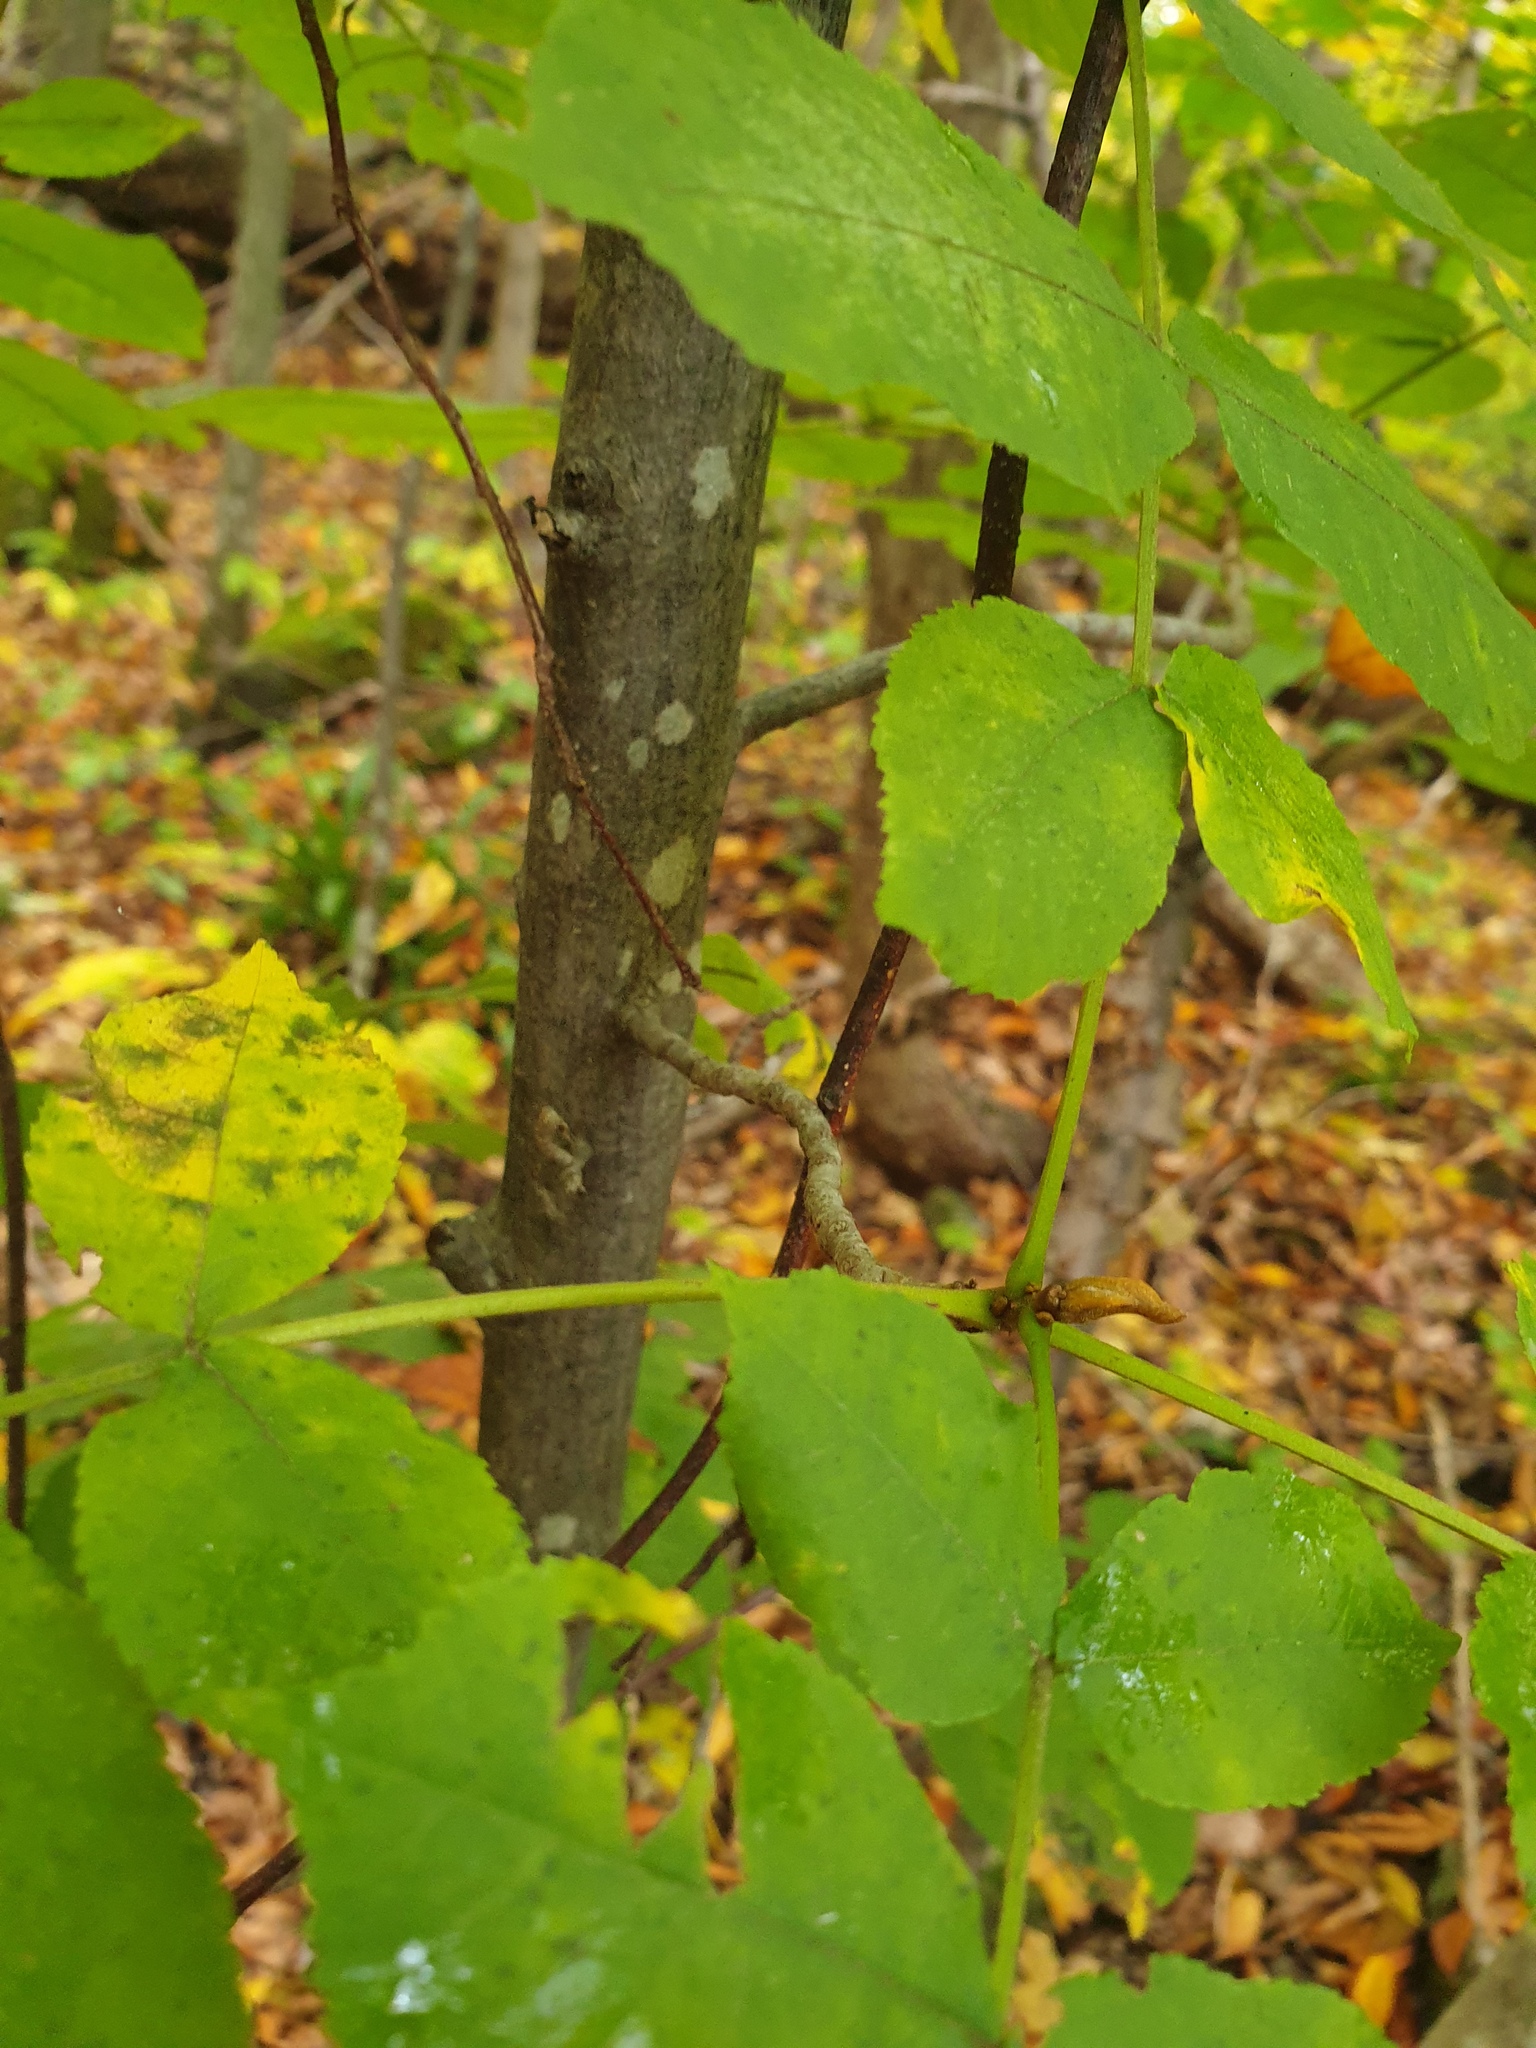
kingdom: Plantae
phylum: Tracheophyta
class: Magnoliopsida
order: Fagales
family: Juglandaceae
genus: Carya
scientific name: Carya cordiformis
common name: Bitternut hickory
